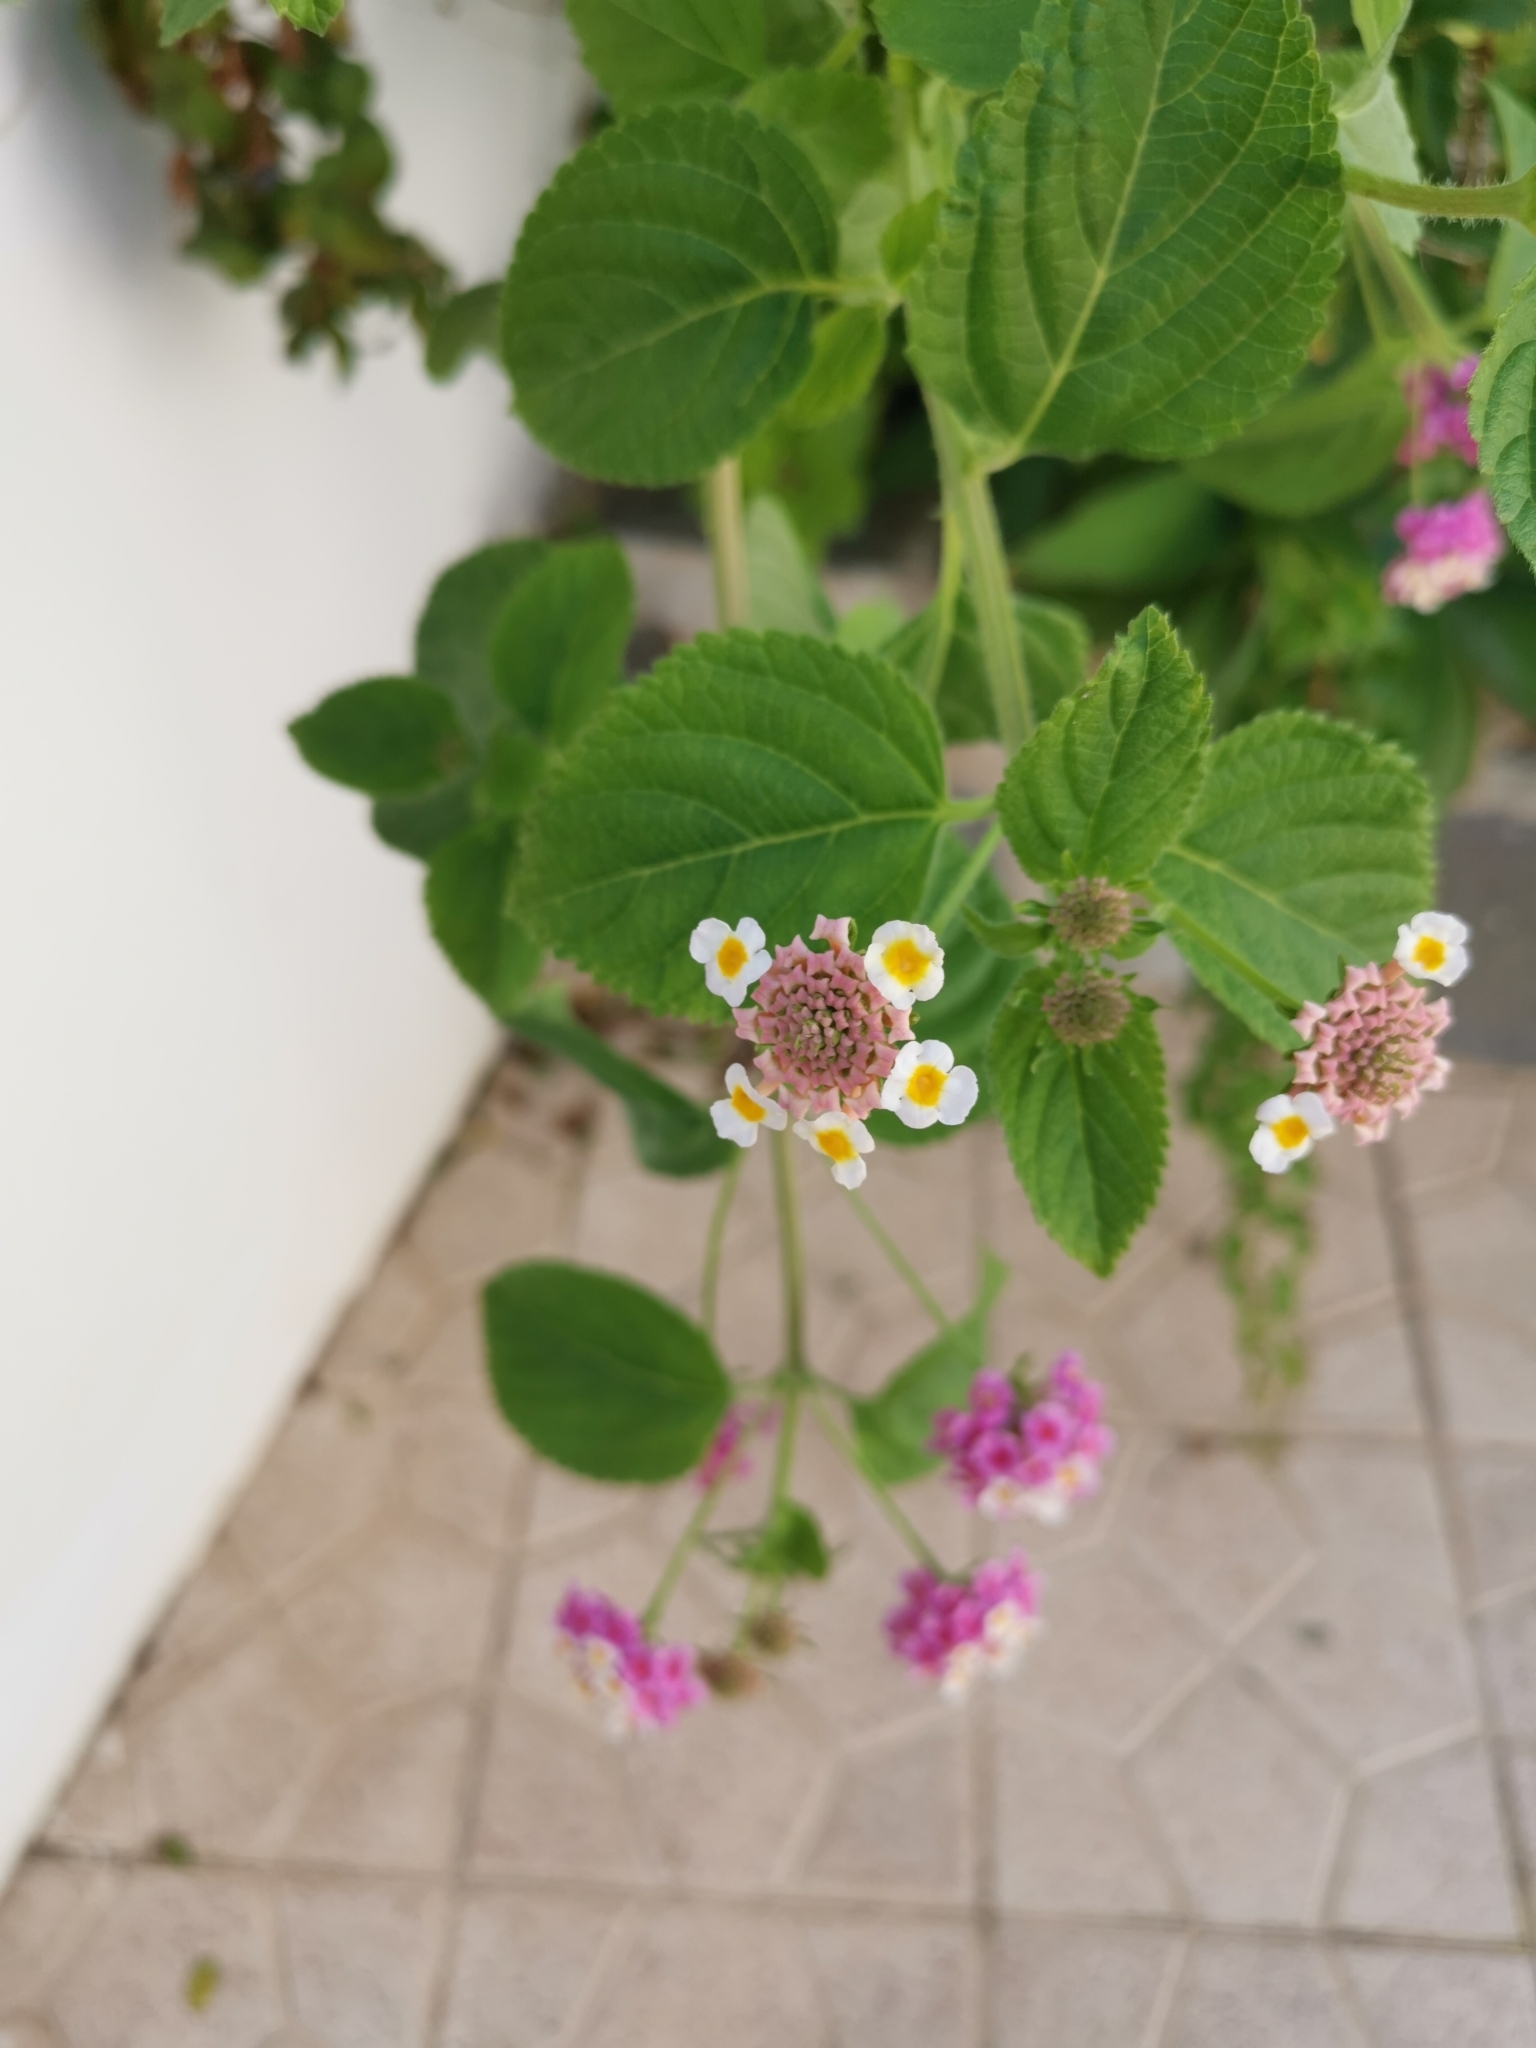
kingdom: Plantae
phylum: Tracheophyta
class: Magnoliopsida
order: Lamiales
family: Verbenaceae
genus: Lantana
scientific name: Lantana camara
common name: Lantana
